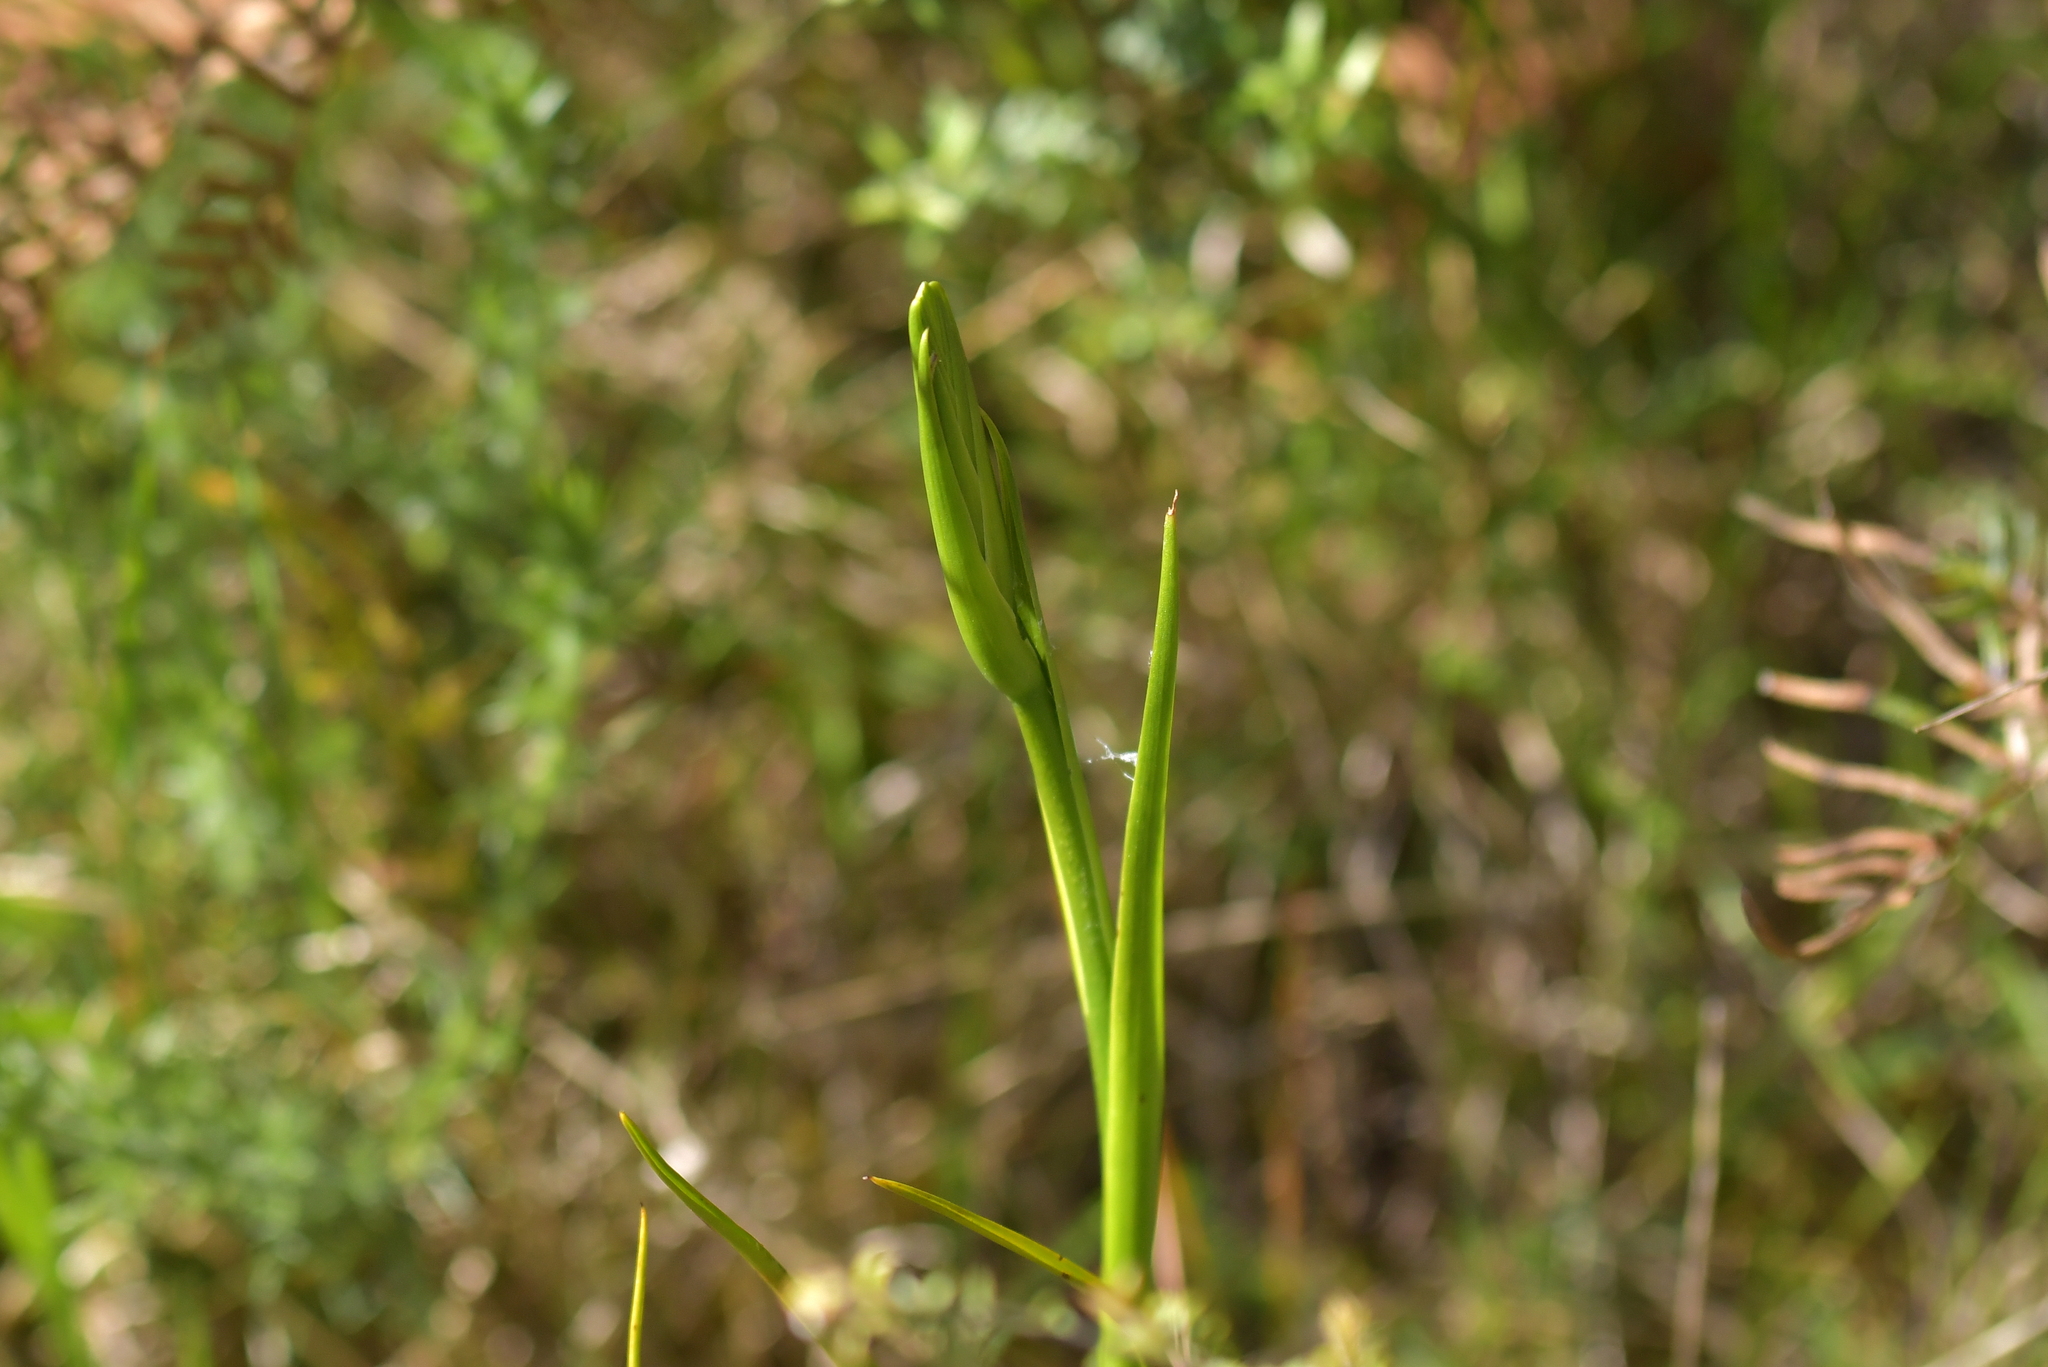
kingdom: Plantae
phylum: Tracheophyta
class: Liliopsida
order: Asparagales
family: Orchidaceae
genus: Orthoceras
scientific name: Orthoceras novae-zeelandiae
